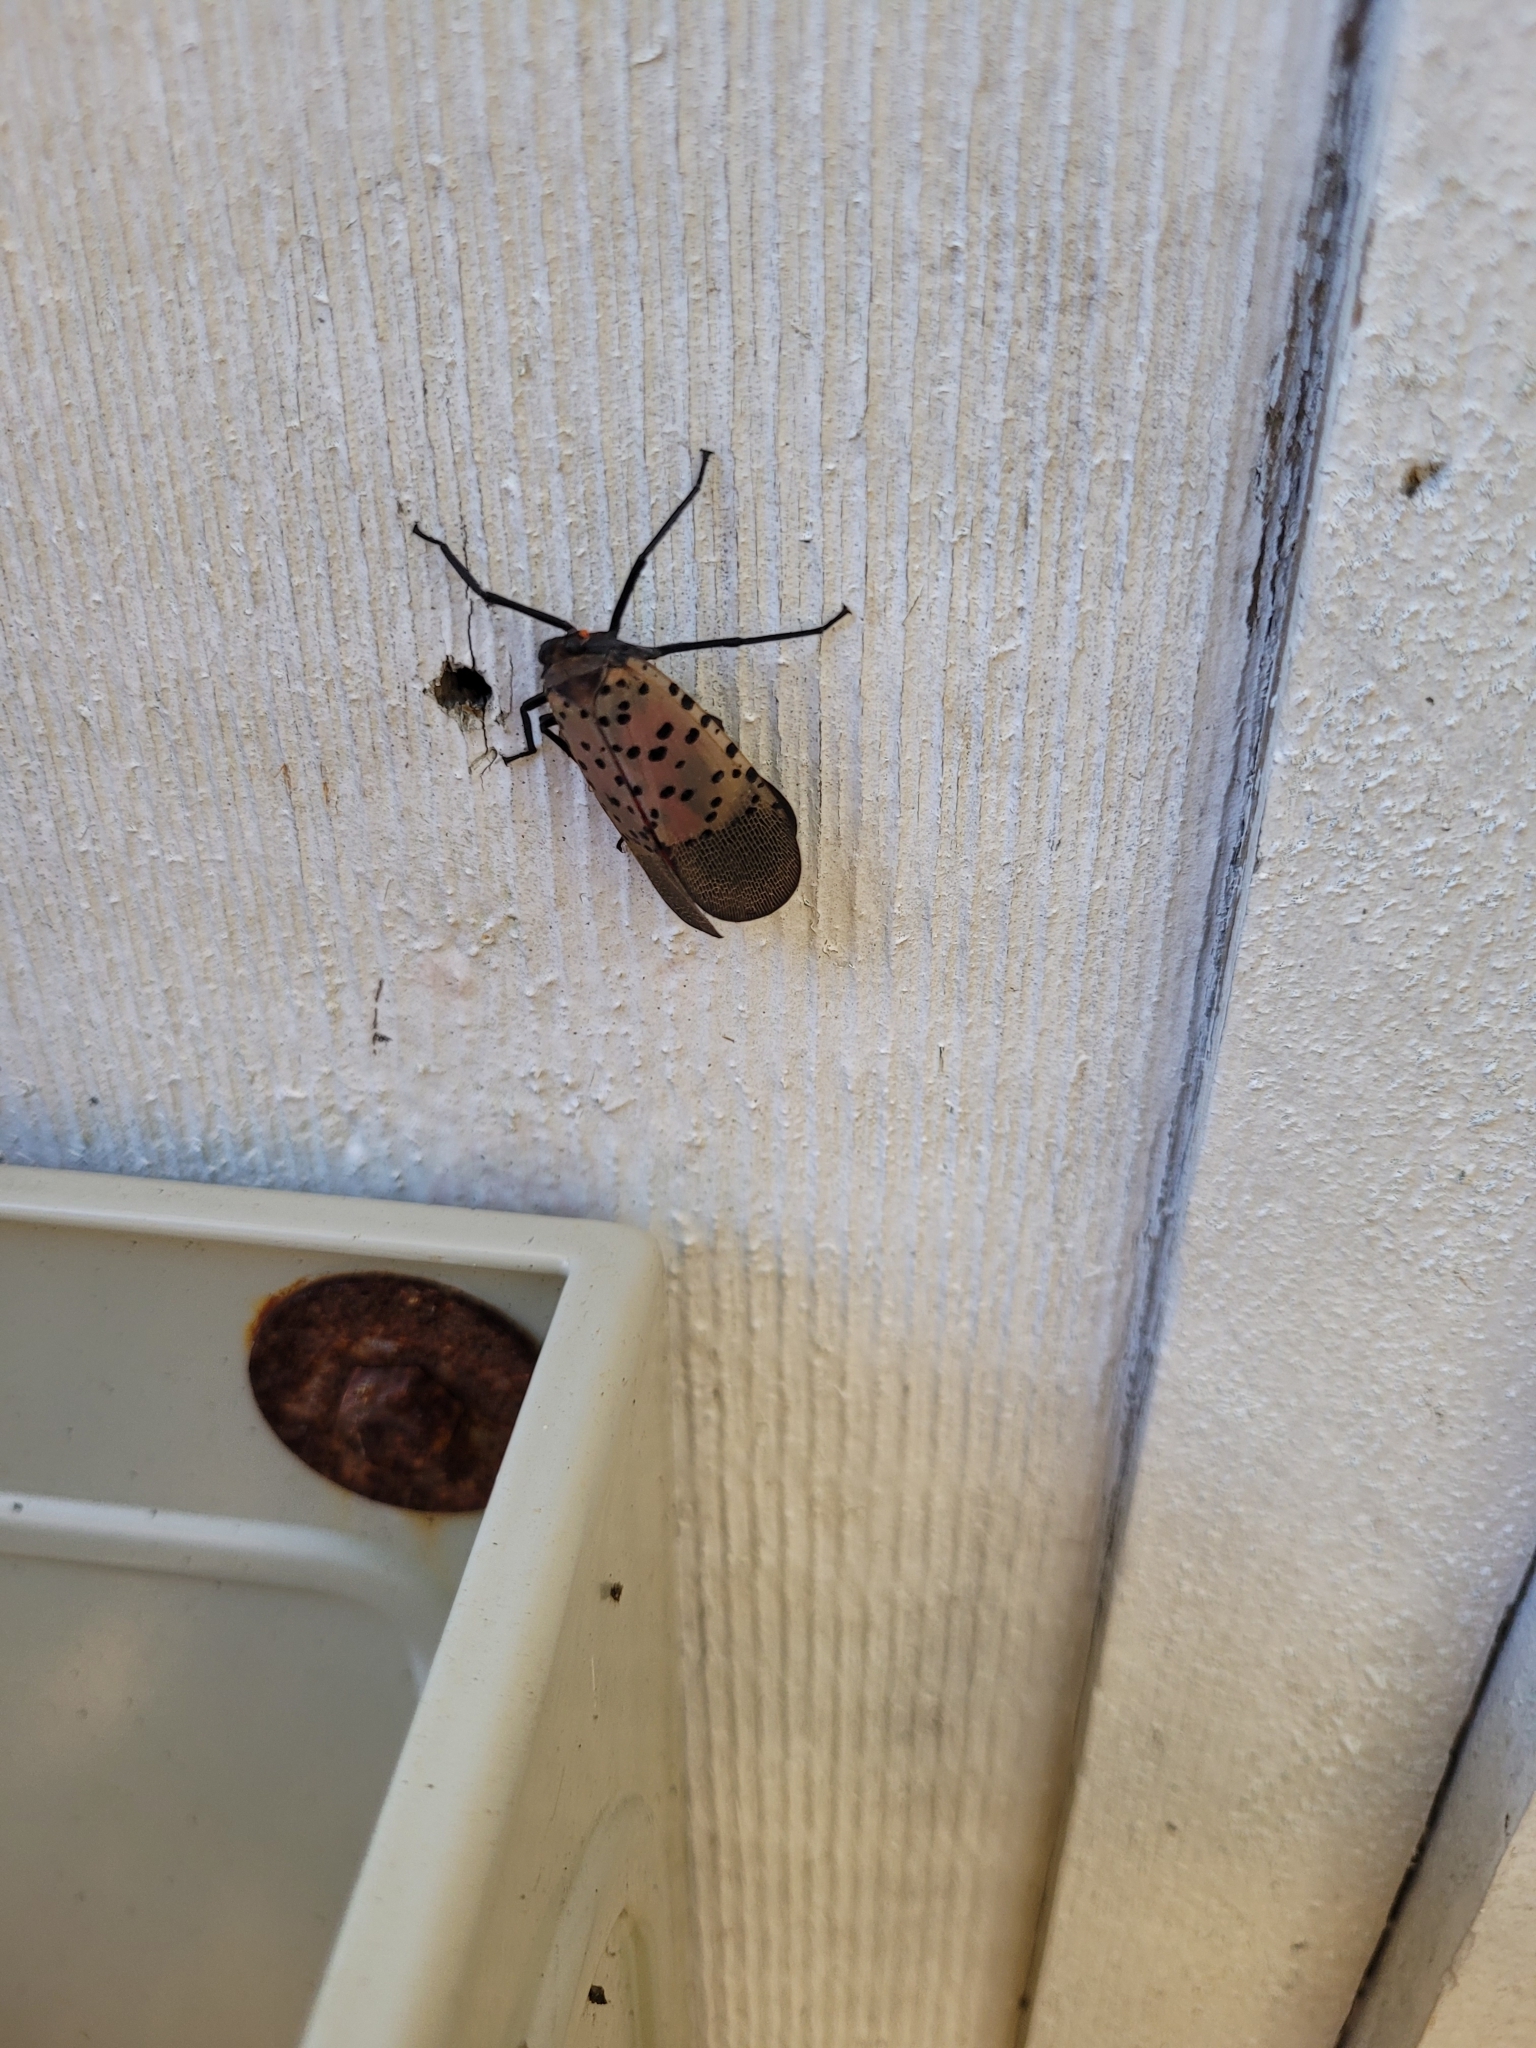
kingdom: Animalia
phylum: Arthropoda
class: Insecta
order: Hemiptera
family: Fulgoridae
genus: Lycorma
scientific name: Lycorma delicatula
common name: Spotted lanternfly
